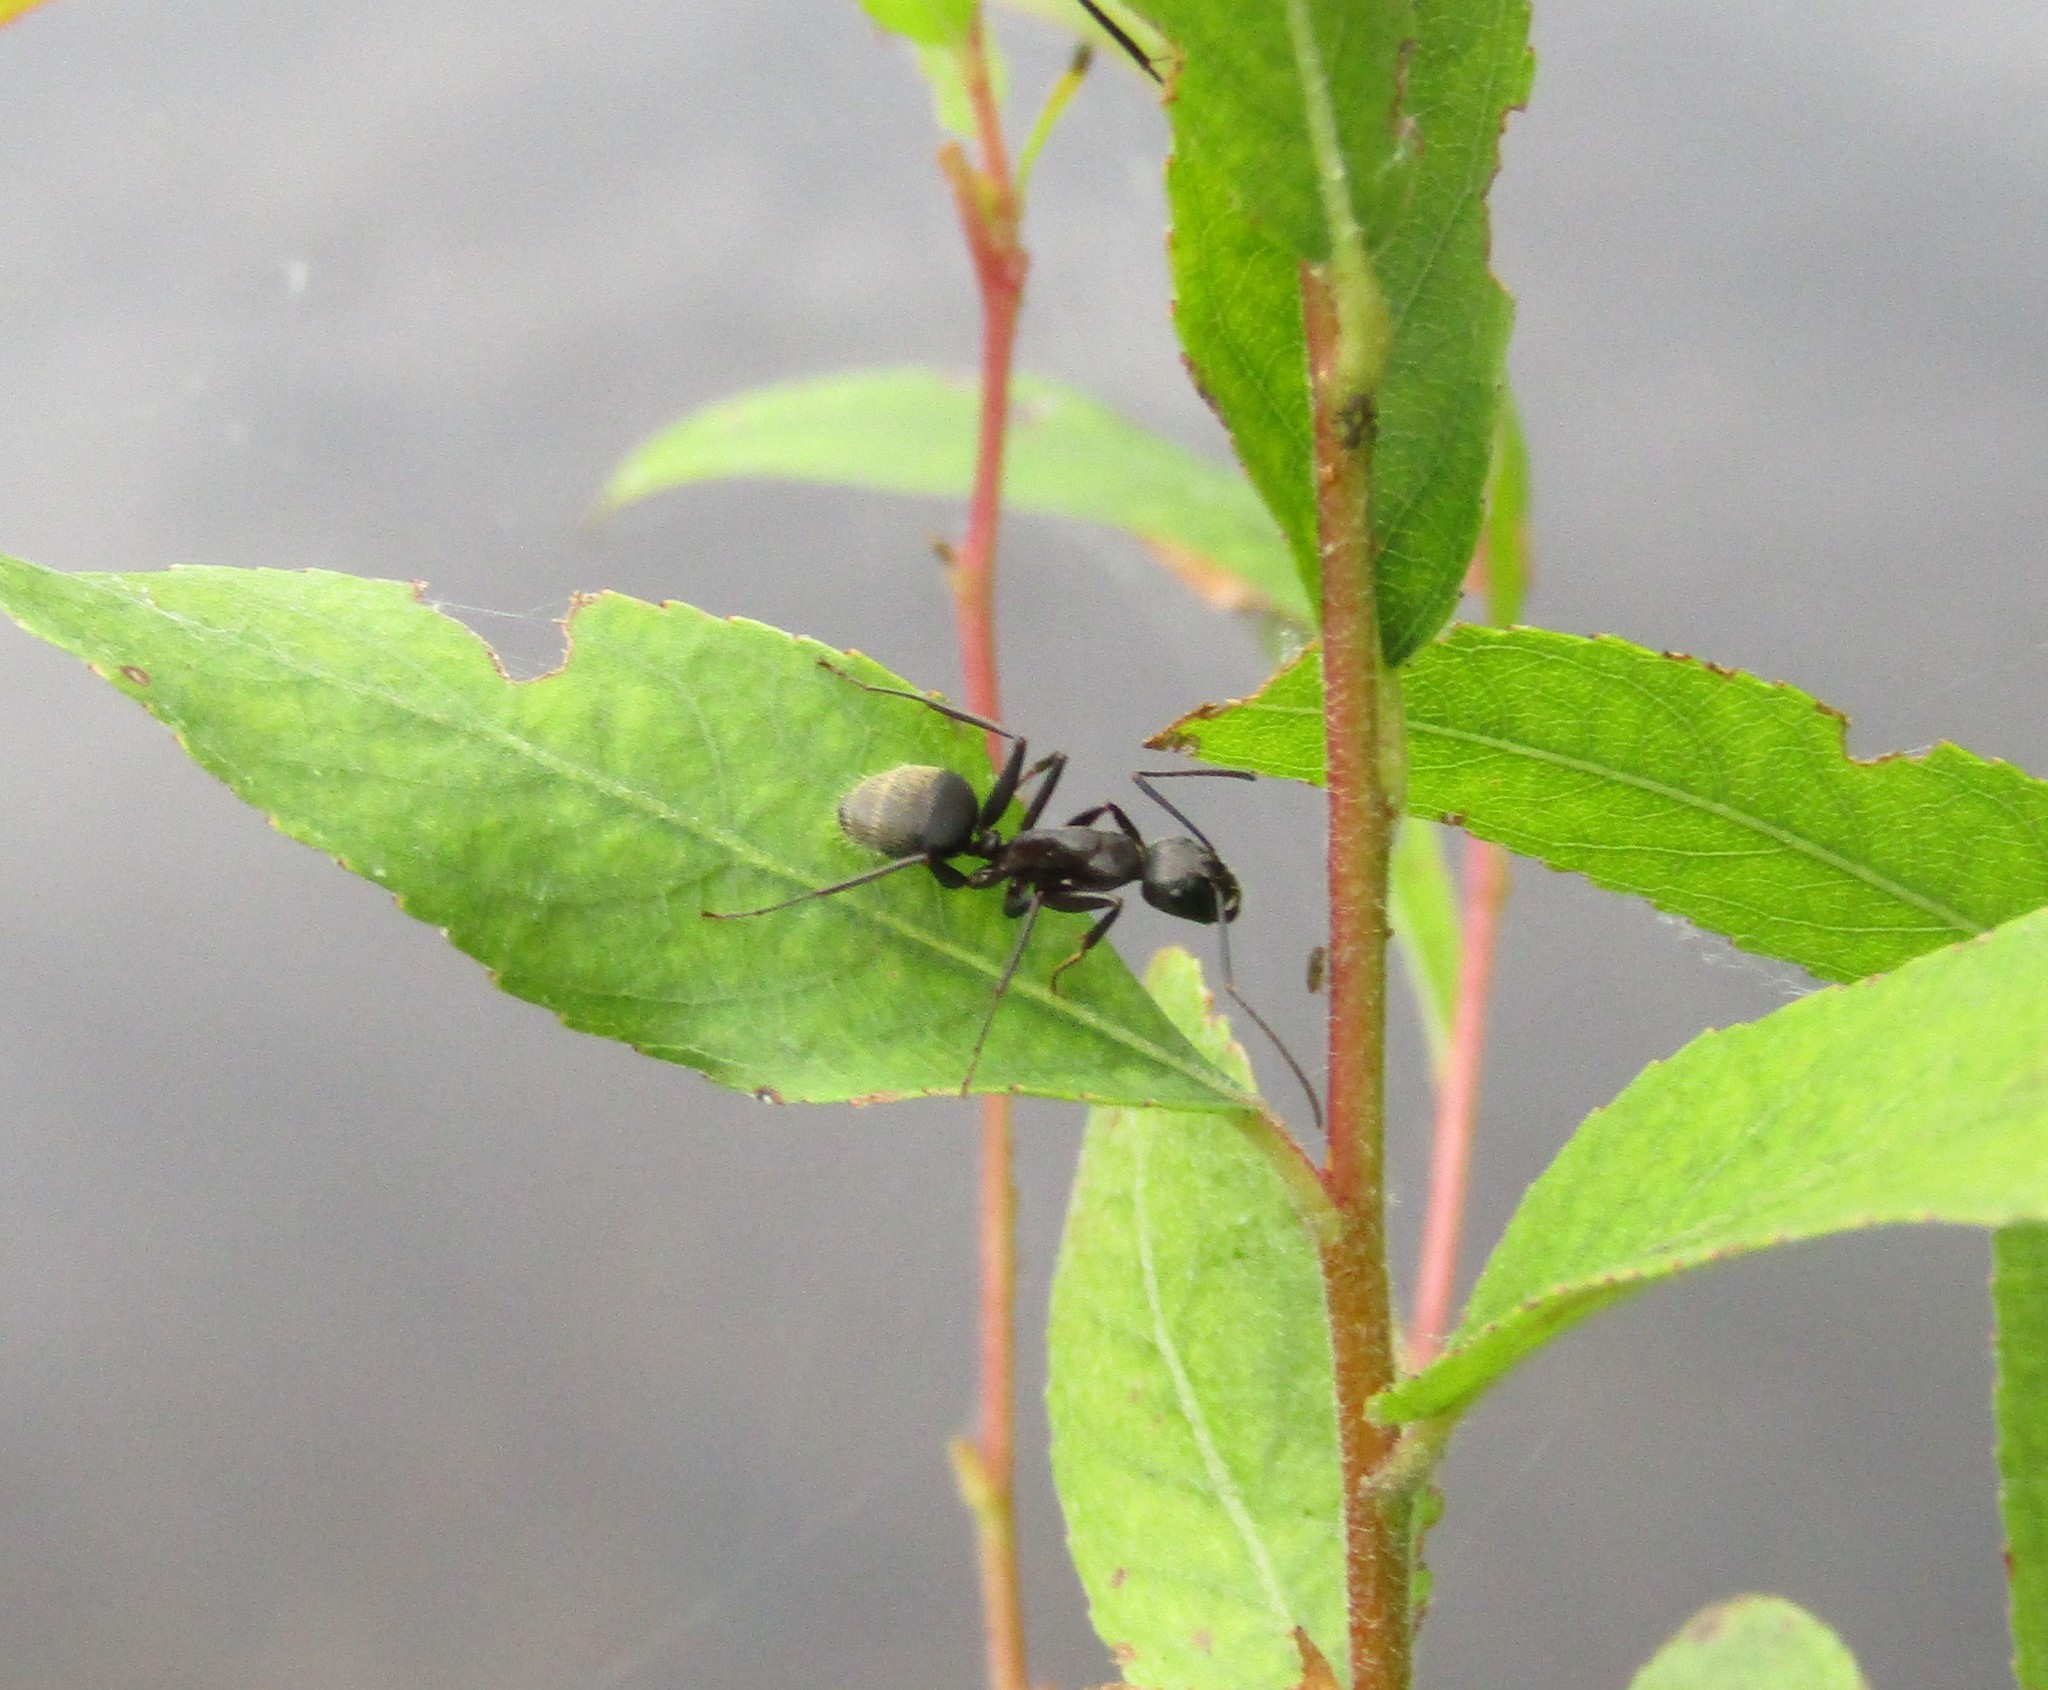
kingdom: Animalia
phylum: Arthropoda
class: Insecta
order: Hymenoptera
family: Formicidae
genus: Camponotus
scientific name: Camponotus chromaiodes
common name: Red carpenter ant
